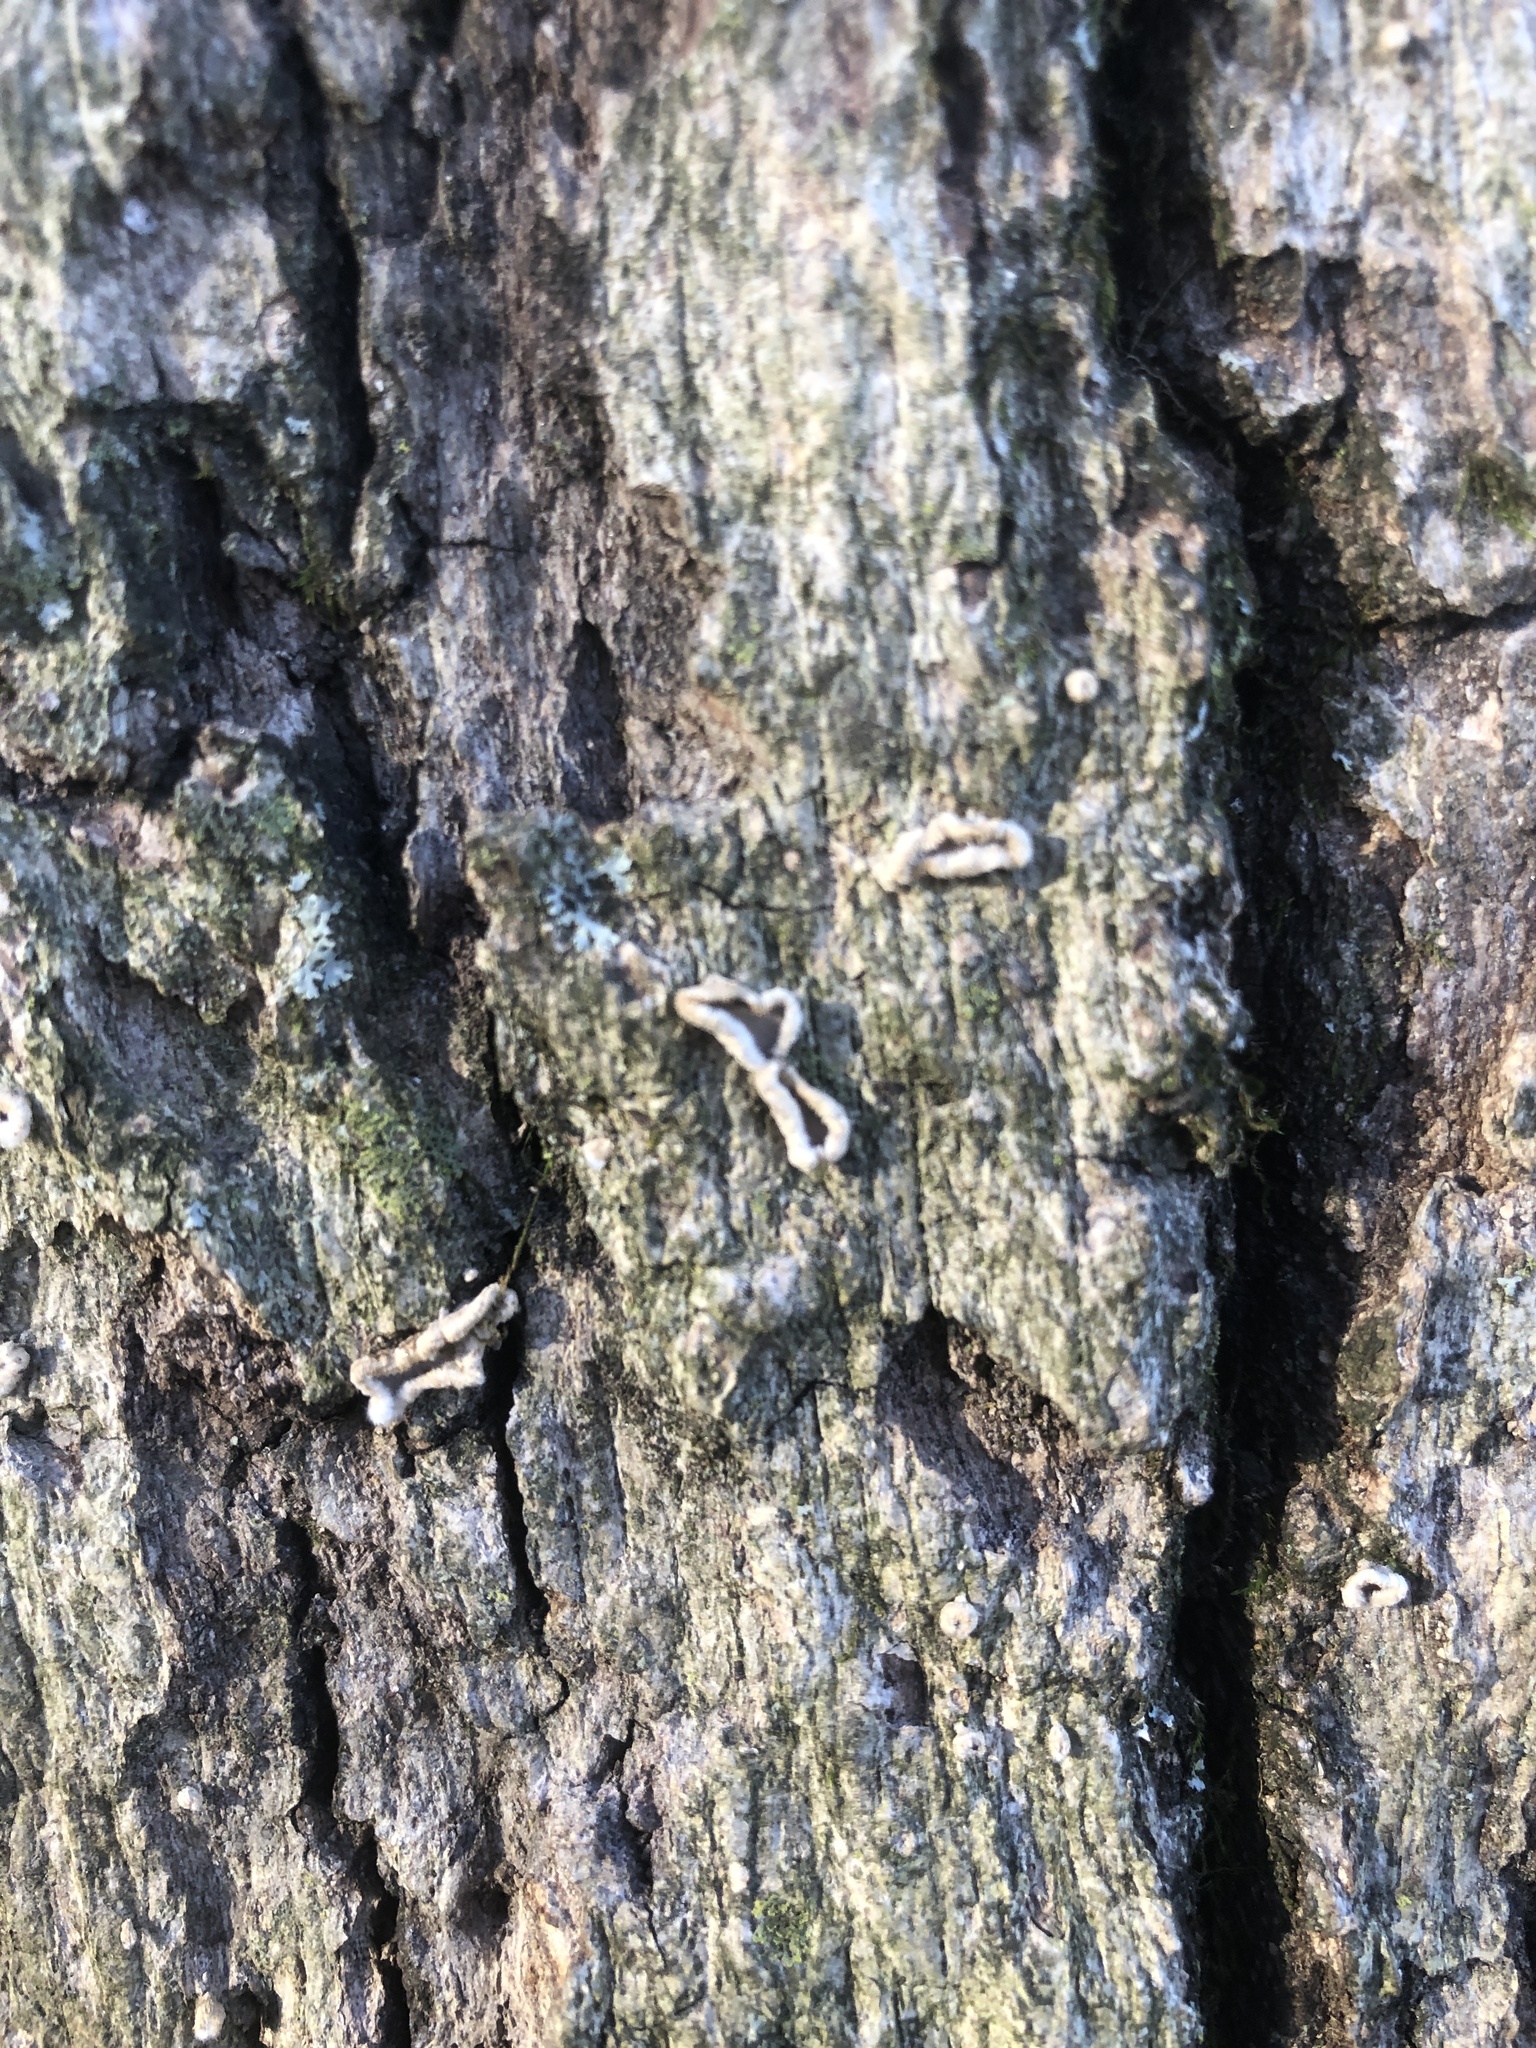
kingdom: Fungi
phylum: Basidiomycota
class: Agaricomycetes
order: Russulales
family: Stereaceae
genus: Acanthophysium
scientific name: Acanthophysium oakesii
